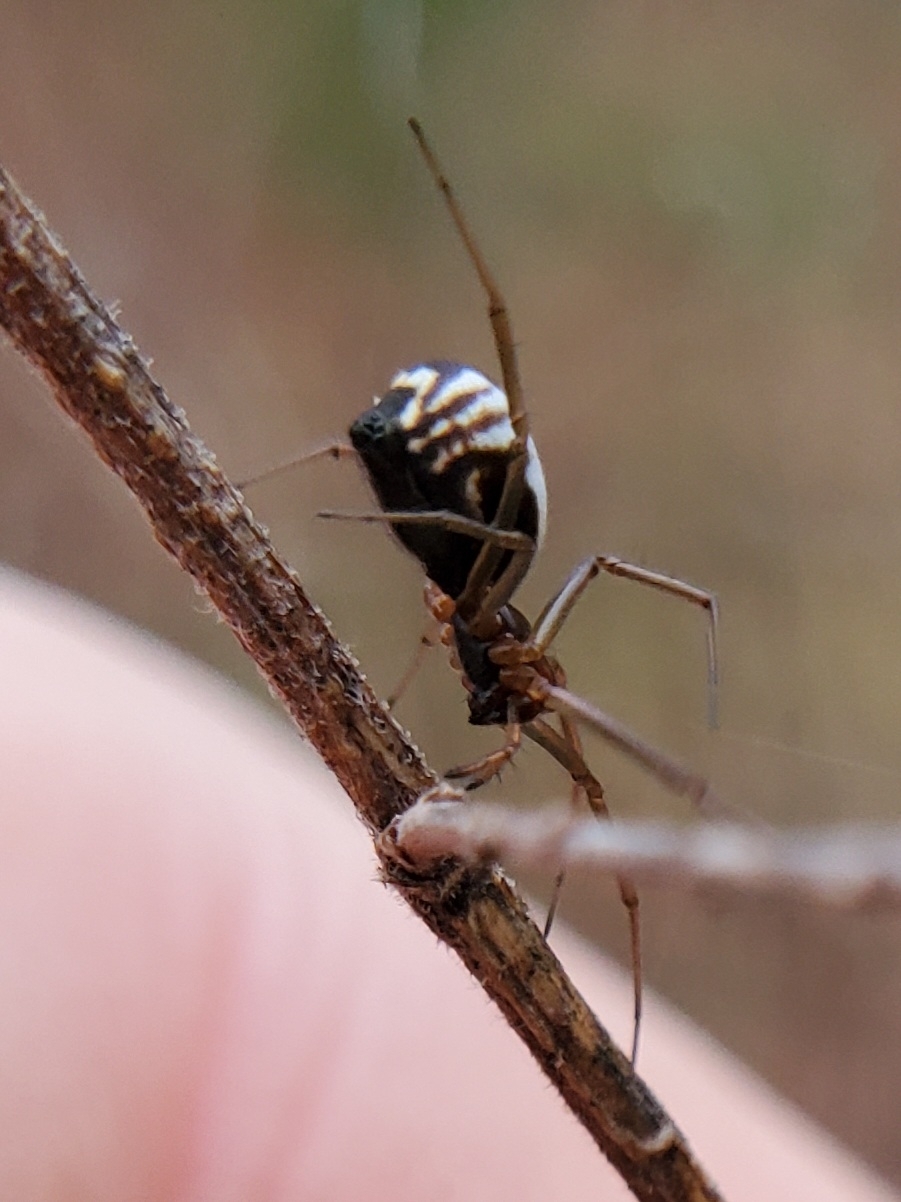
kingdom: Animalia
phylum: Arthropoda
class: Arachnida
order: Araneae
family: Linyphiidae
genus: Frontinella
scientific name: Frontinella pyramitela
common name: Bowl-and-doily spider
